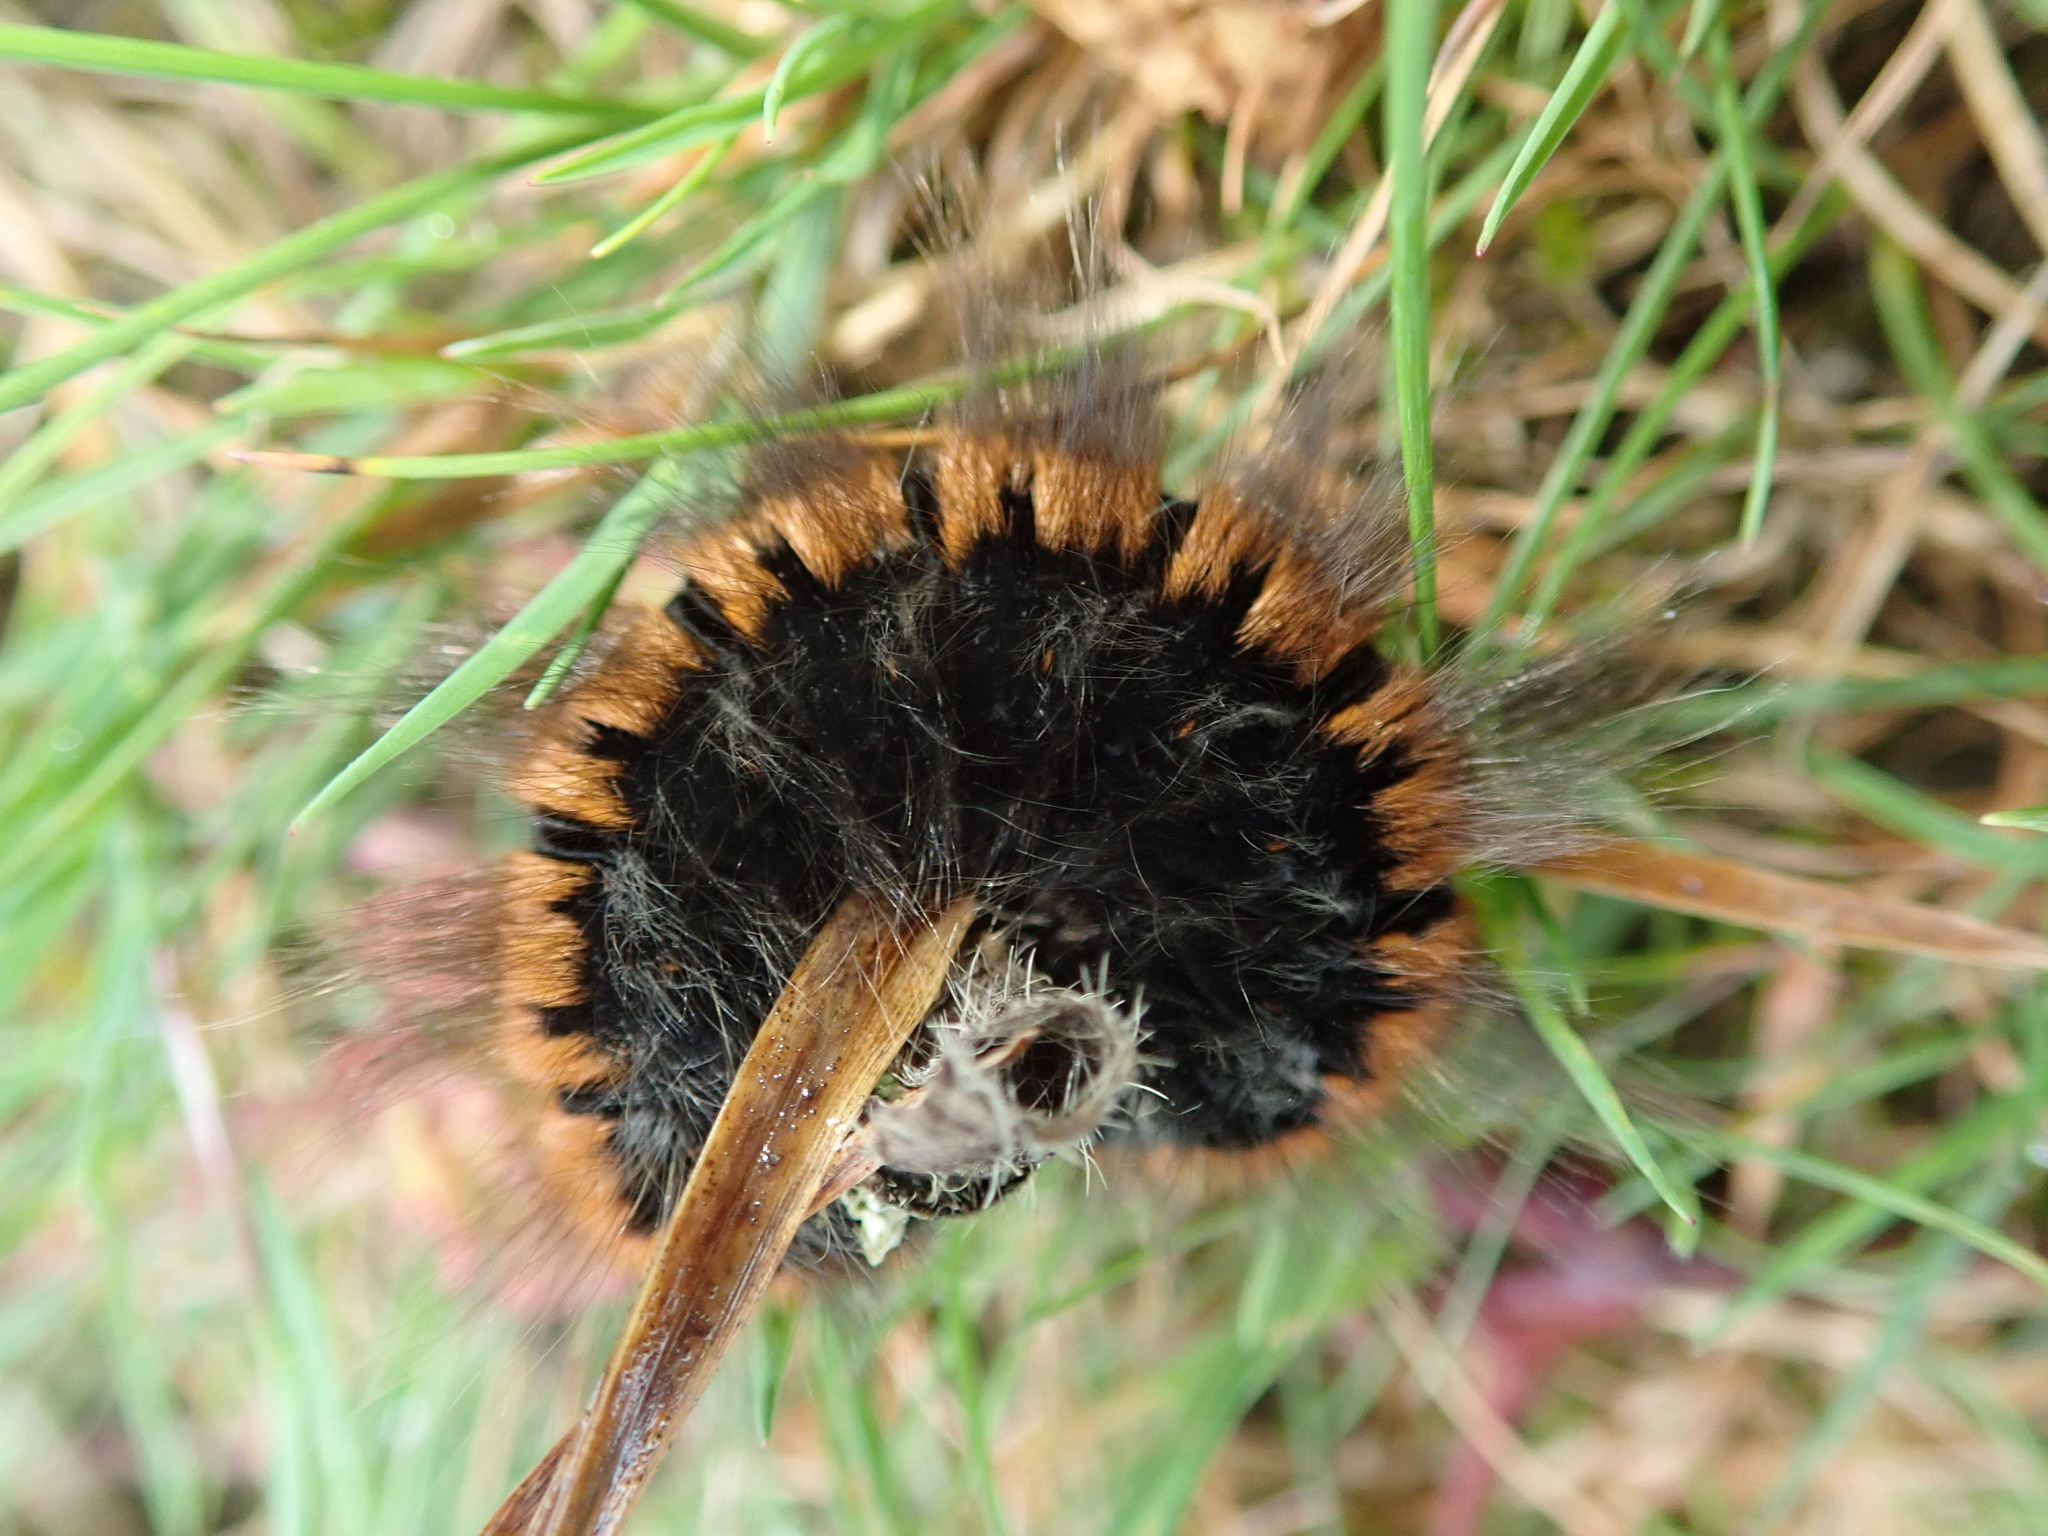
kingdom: Animalia
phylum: Arthropoda
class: Insecta
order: Lepidoptera
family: Lasiocampidae
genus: Macrothylacia
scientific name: Macrothylacia rubi
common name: Fox moth
